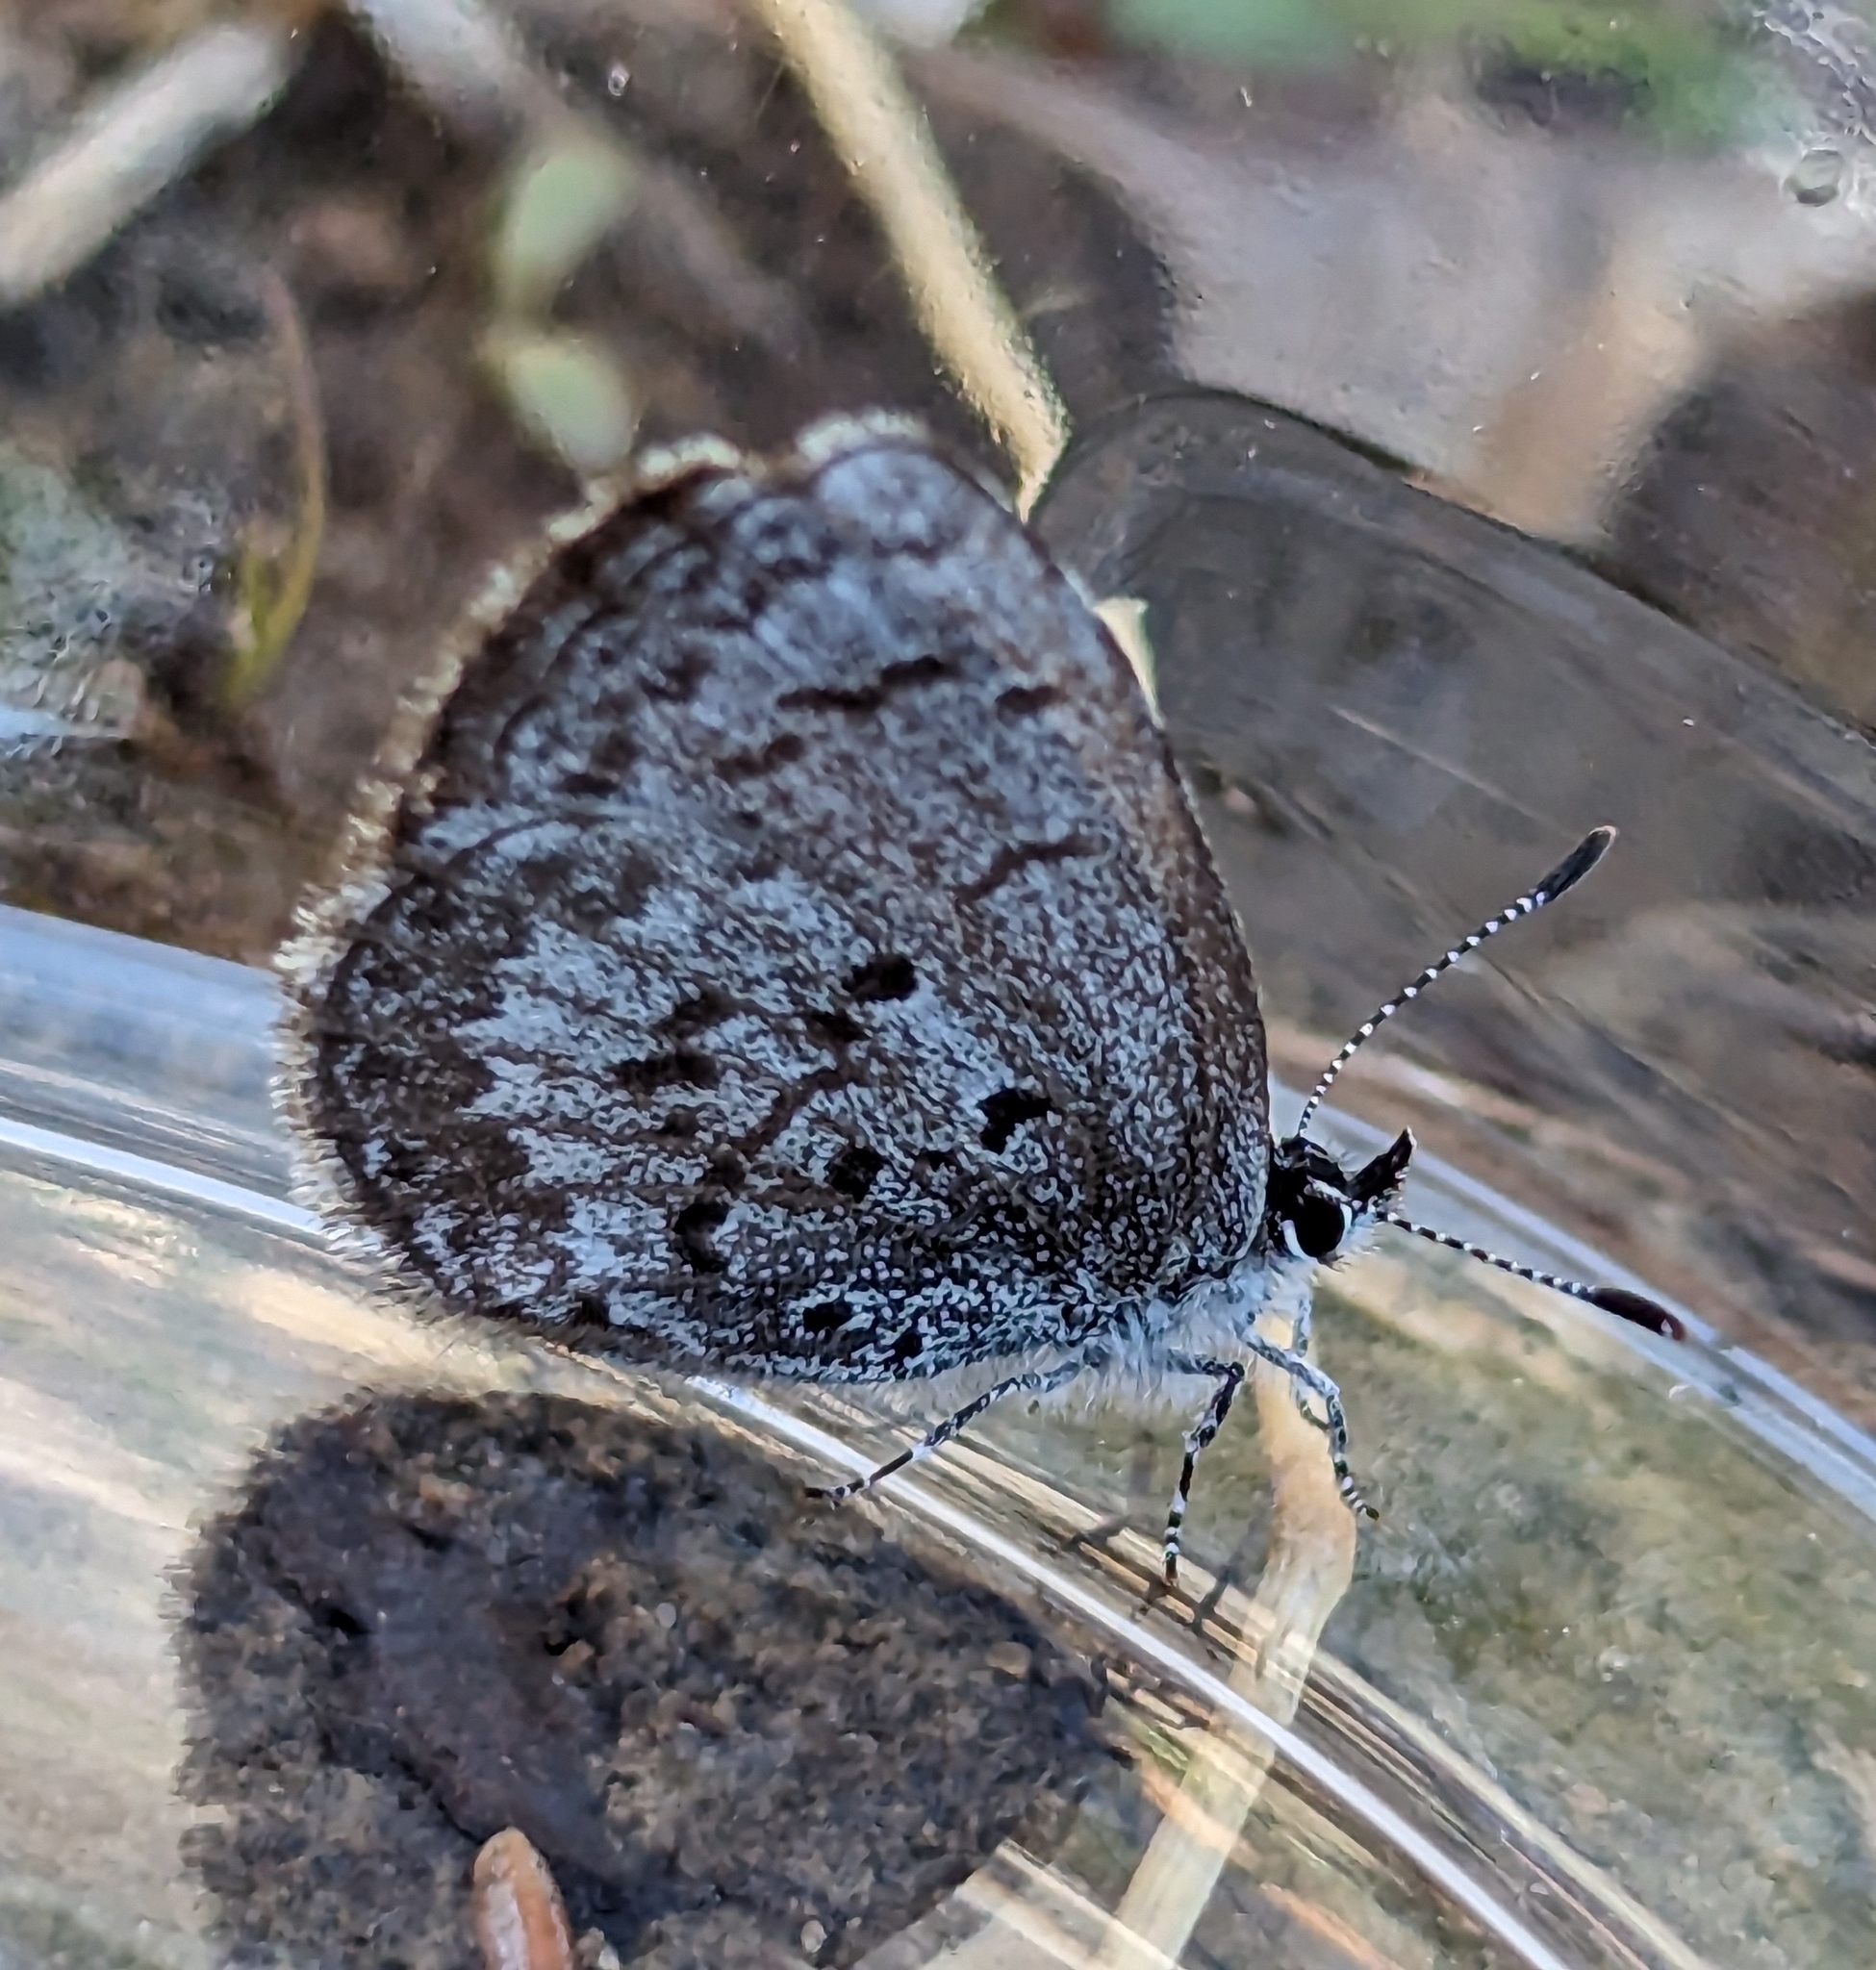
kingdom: Animalia
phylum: Arthropoda
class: Insecta
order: Lepidoptera
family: Lycaenidae
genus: Celastrina
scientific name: Celastrina lucia
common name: Lucia azure
